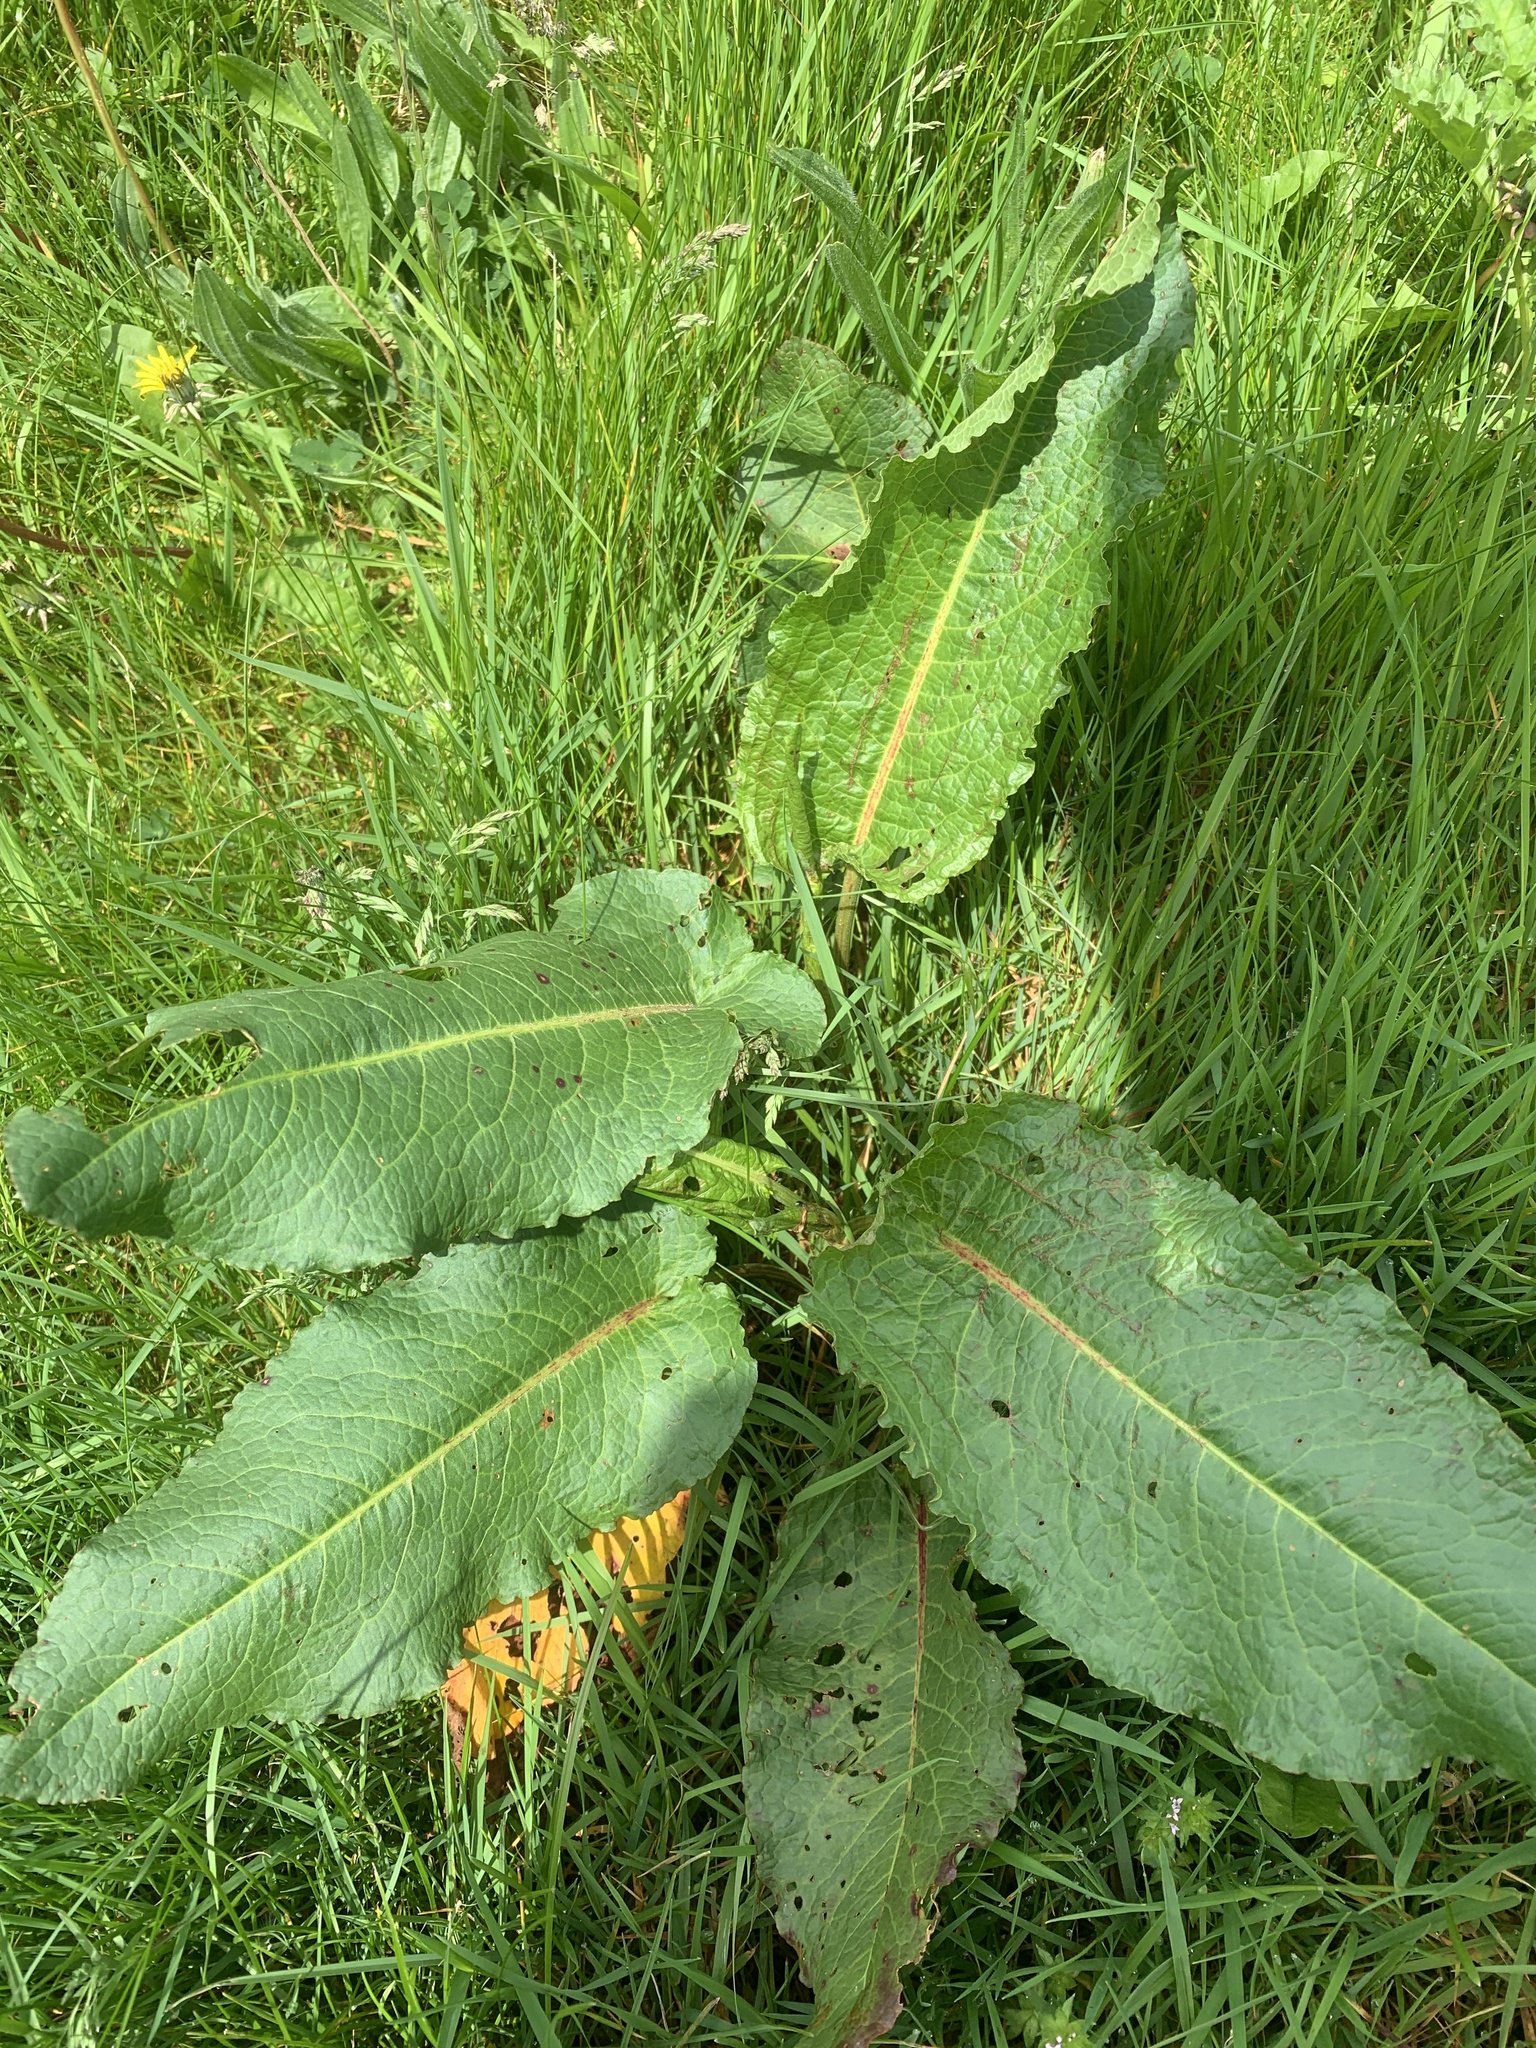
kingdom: Plantae
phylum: Tracheophyta
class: Magnoliopsida
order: Caryophyllales
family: Polygonaceae
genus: Rumex
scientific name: Rumex obtusifolius
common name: Bitter dock
